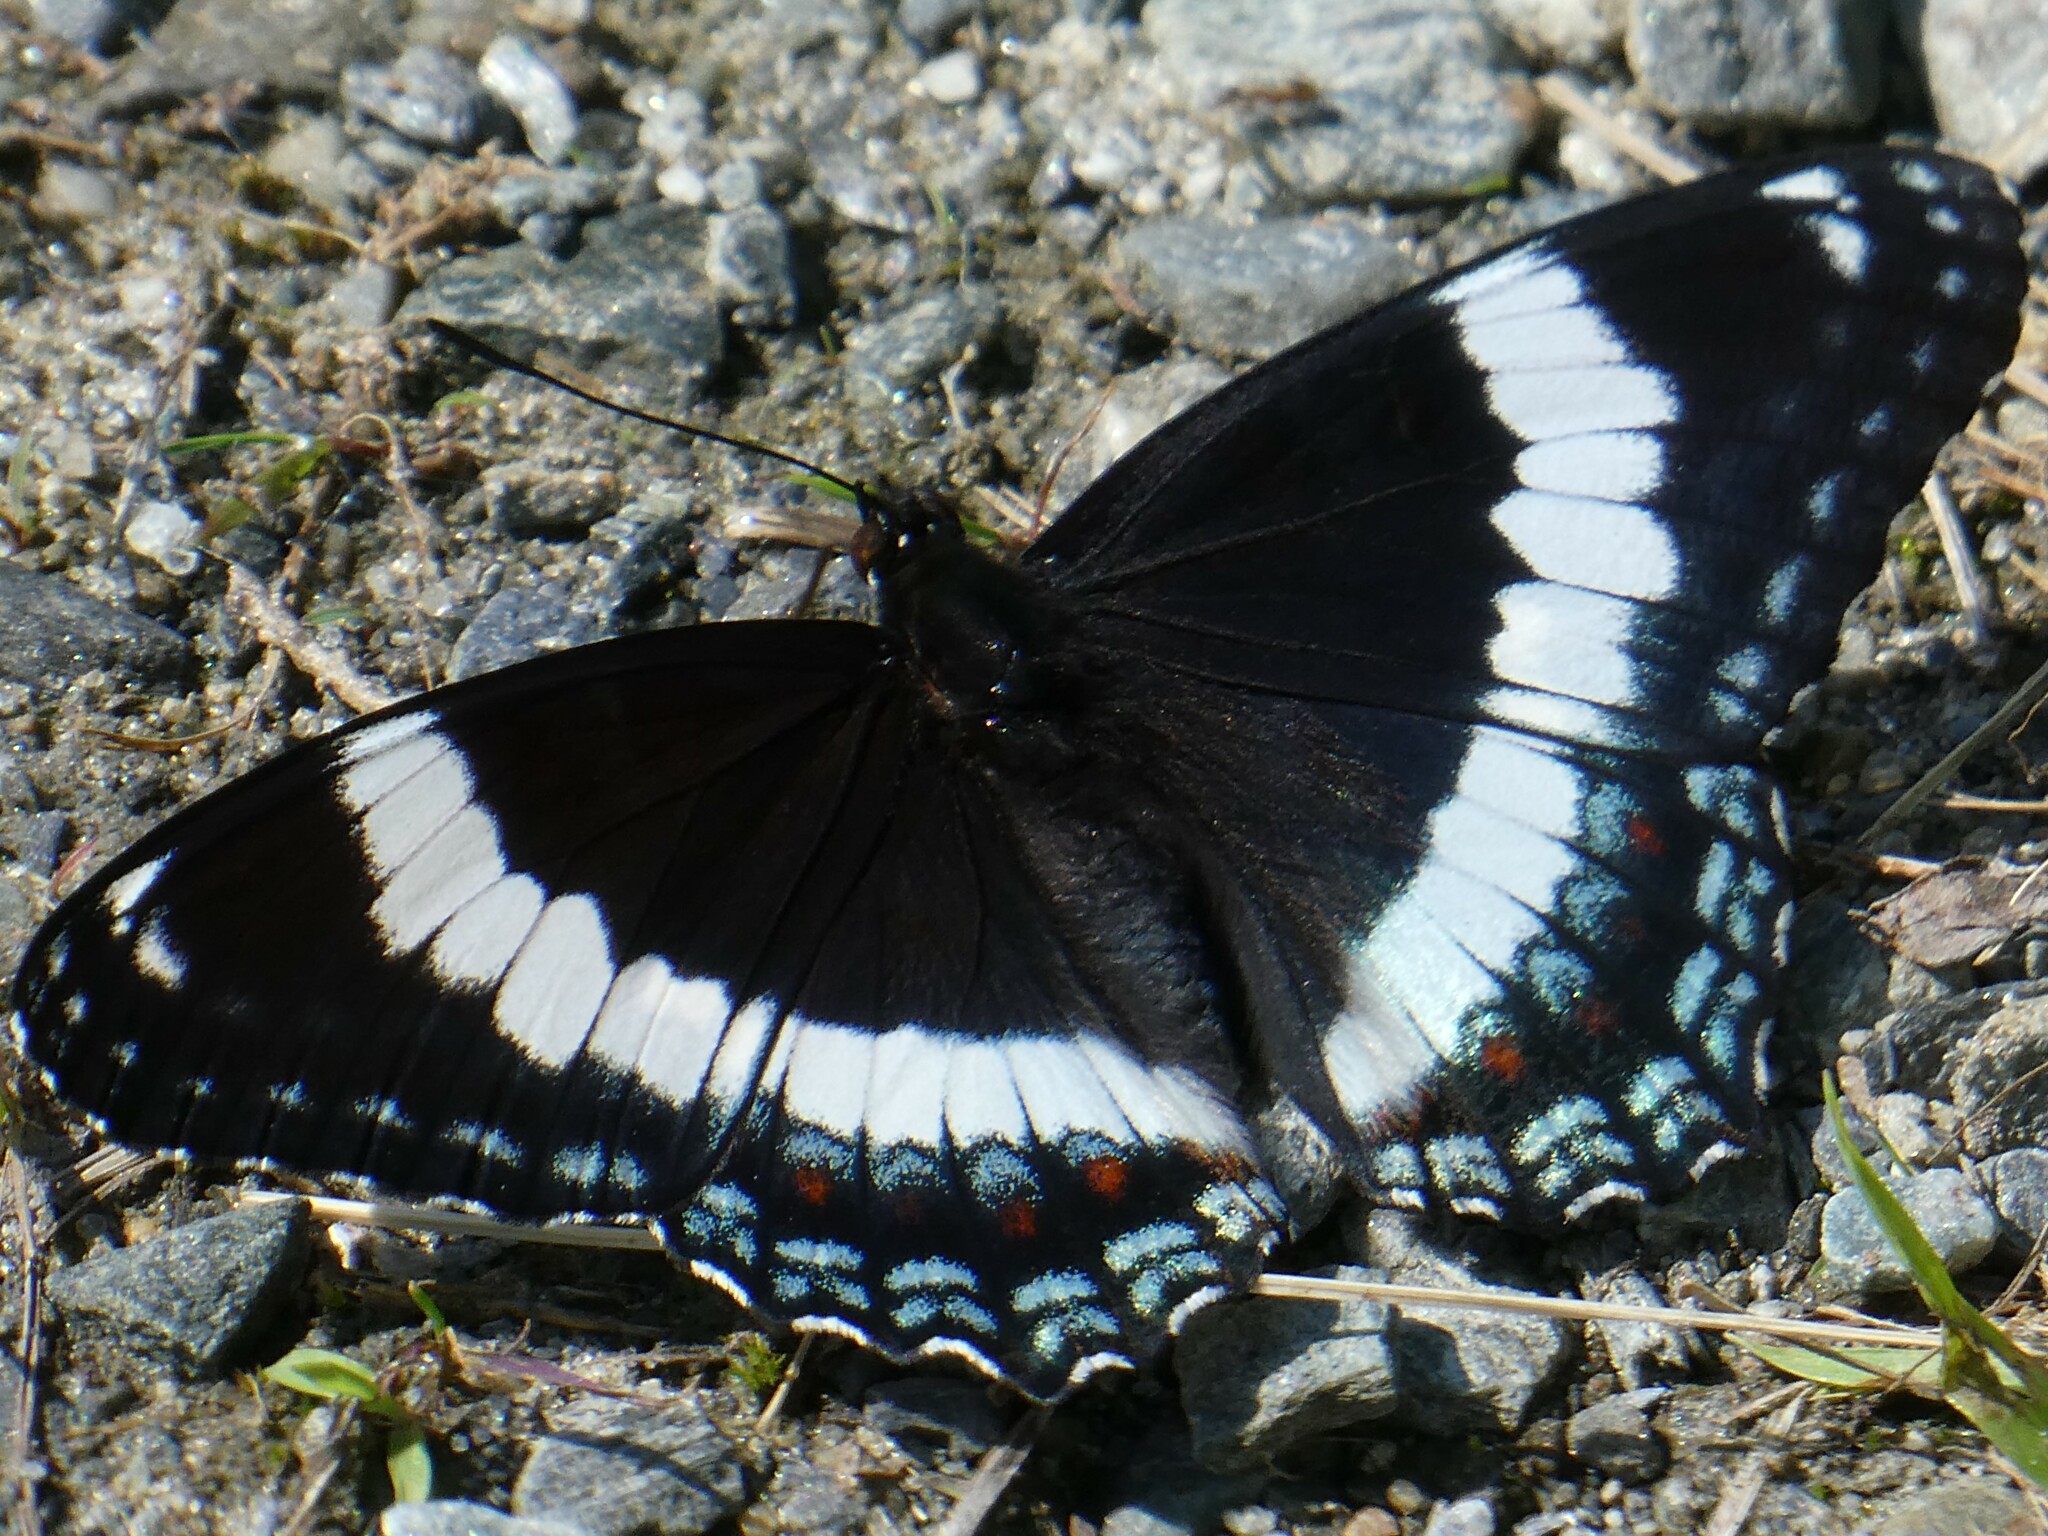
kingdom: Animalia
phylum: Arthropoda
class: Insecta
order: Lepidoptera
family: Nymphalidae
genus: Limenitis
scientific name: Limenitis arthemis
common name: Red-spotted admiral
